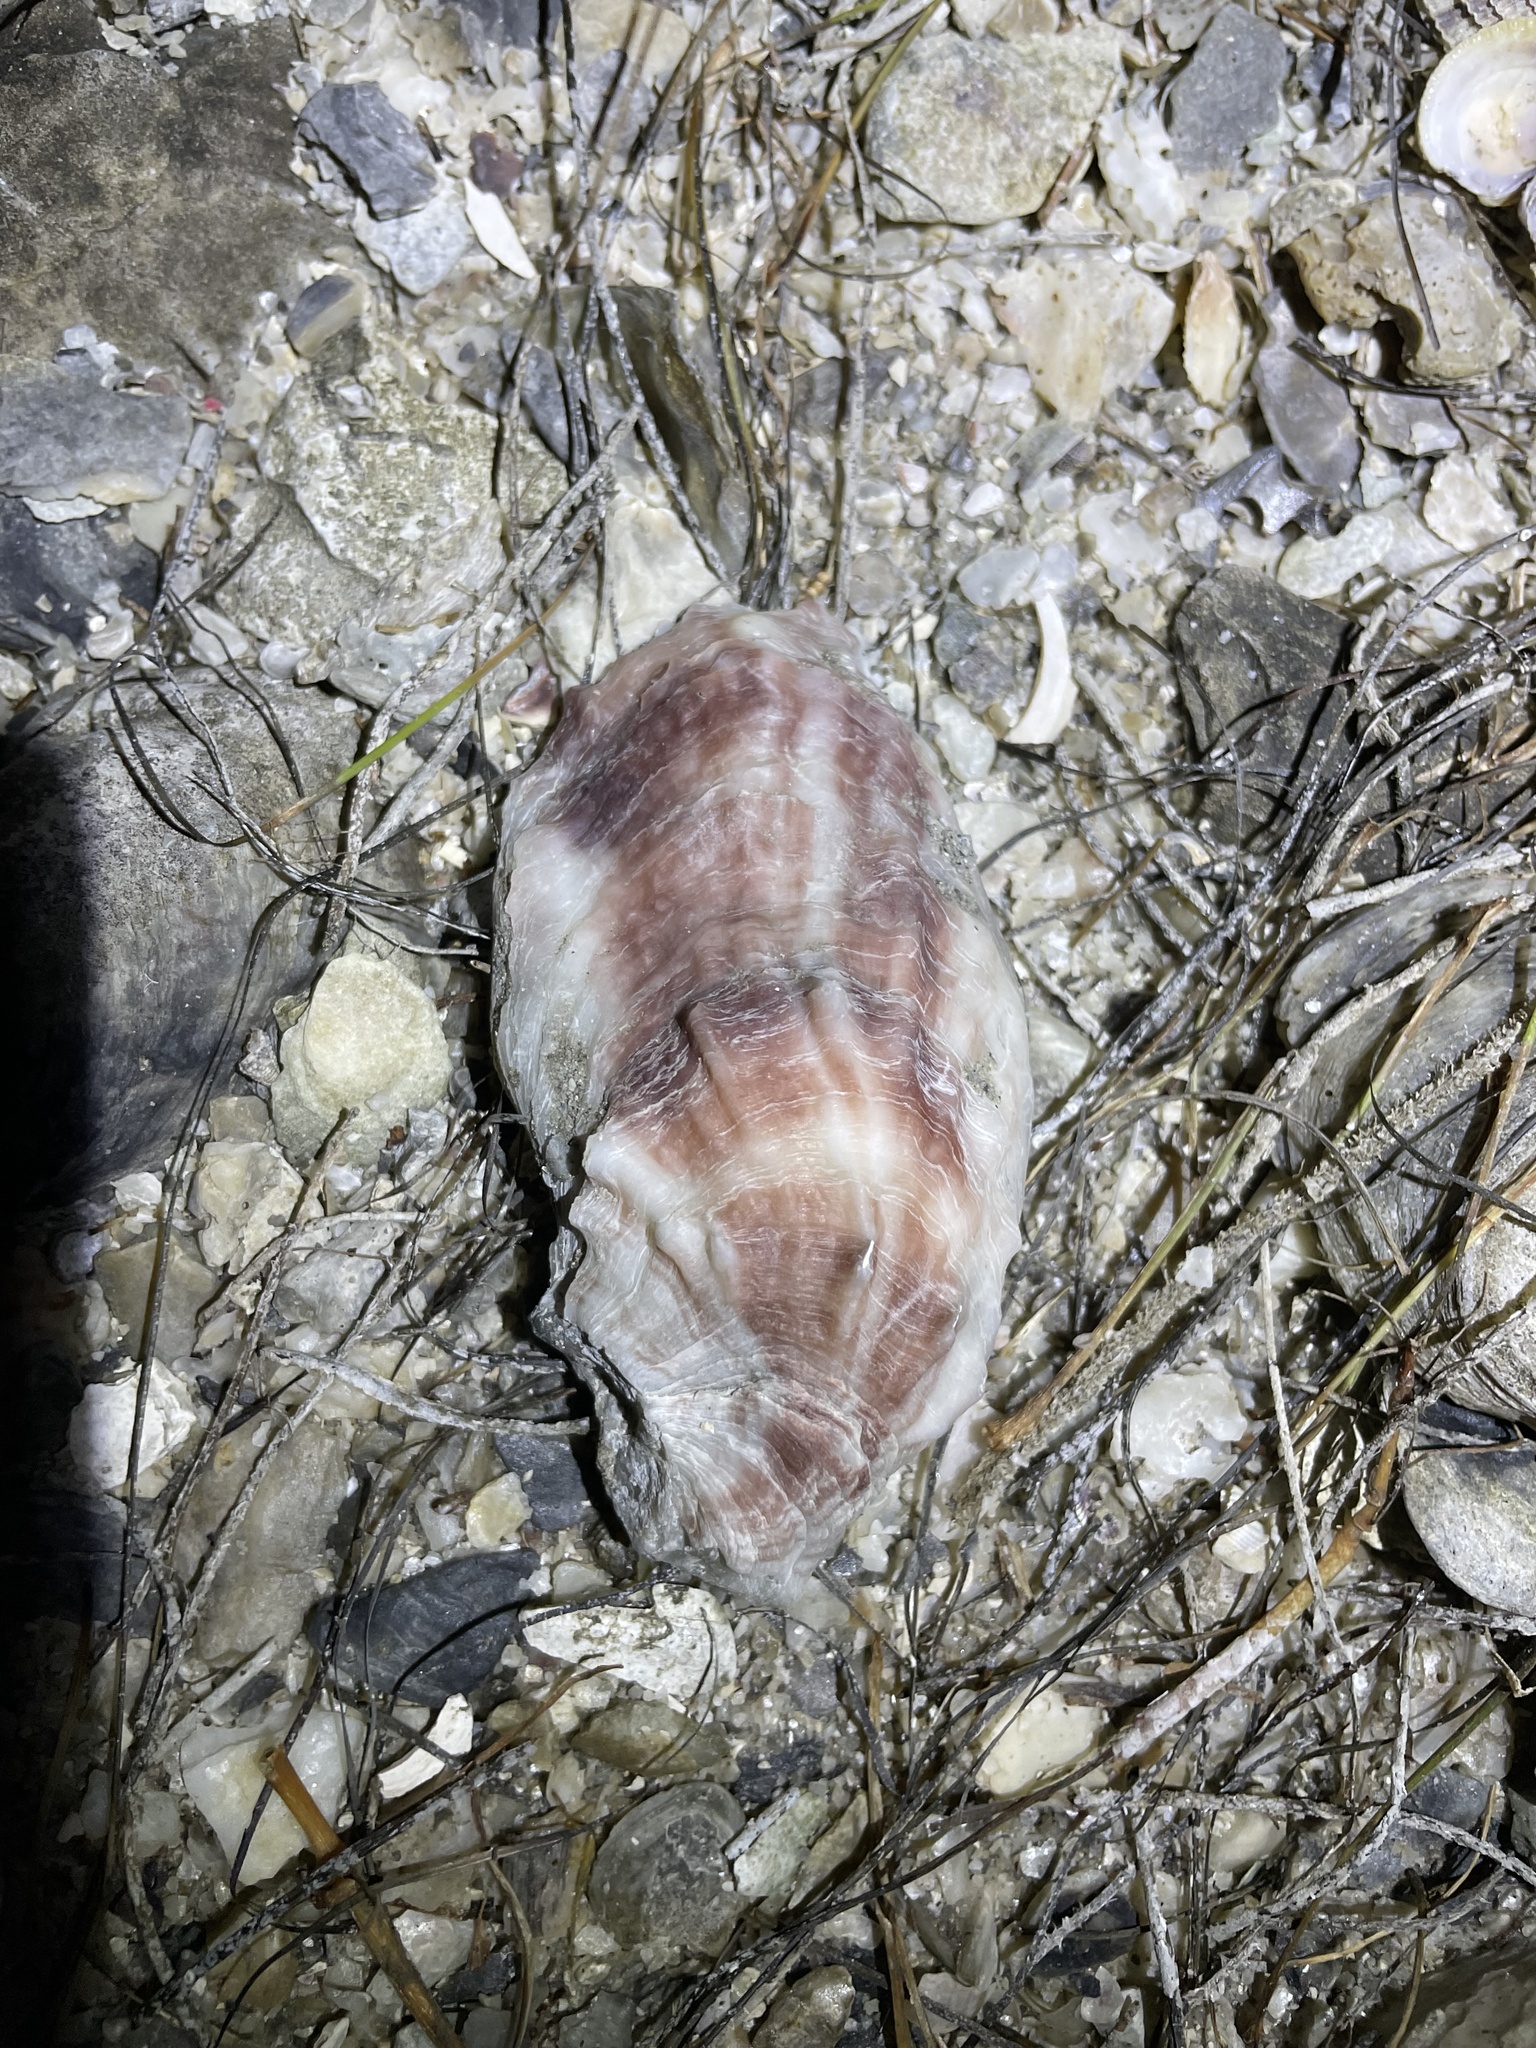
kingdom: Animalia
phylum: Mollusca
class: Bivalvia
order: Ostreida
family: Ostreidae
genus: Crassostrea
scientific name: Crassostrea virginica
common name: American oyster
